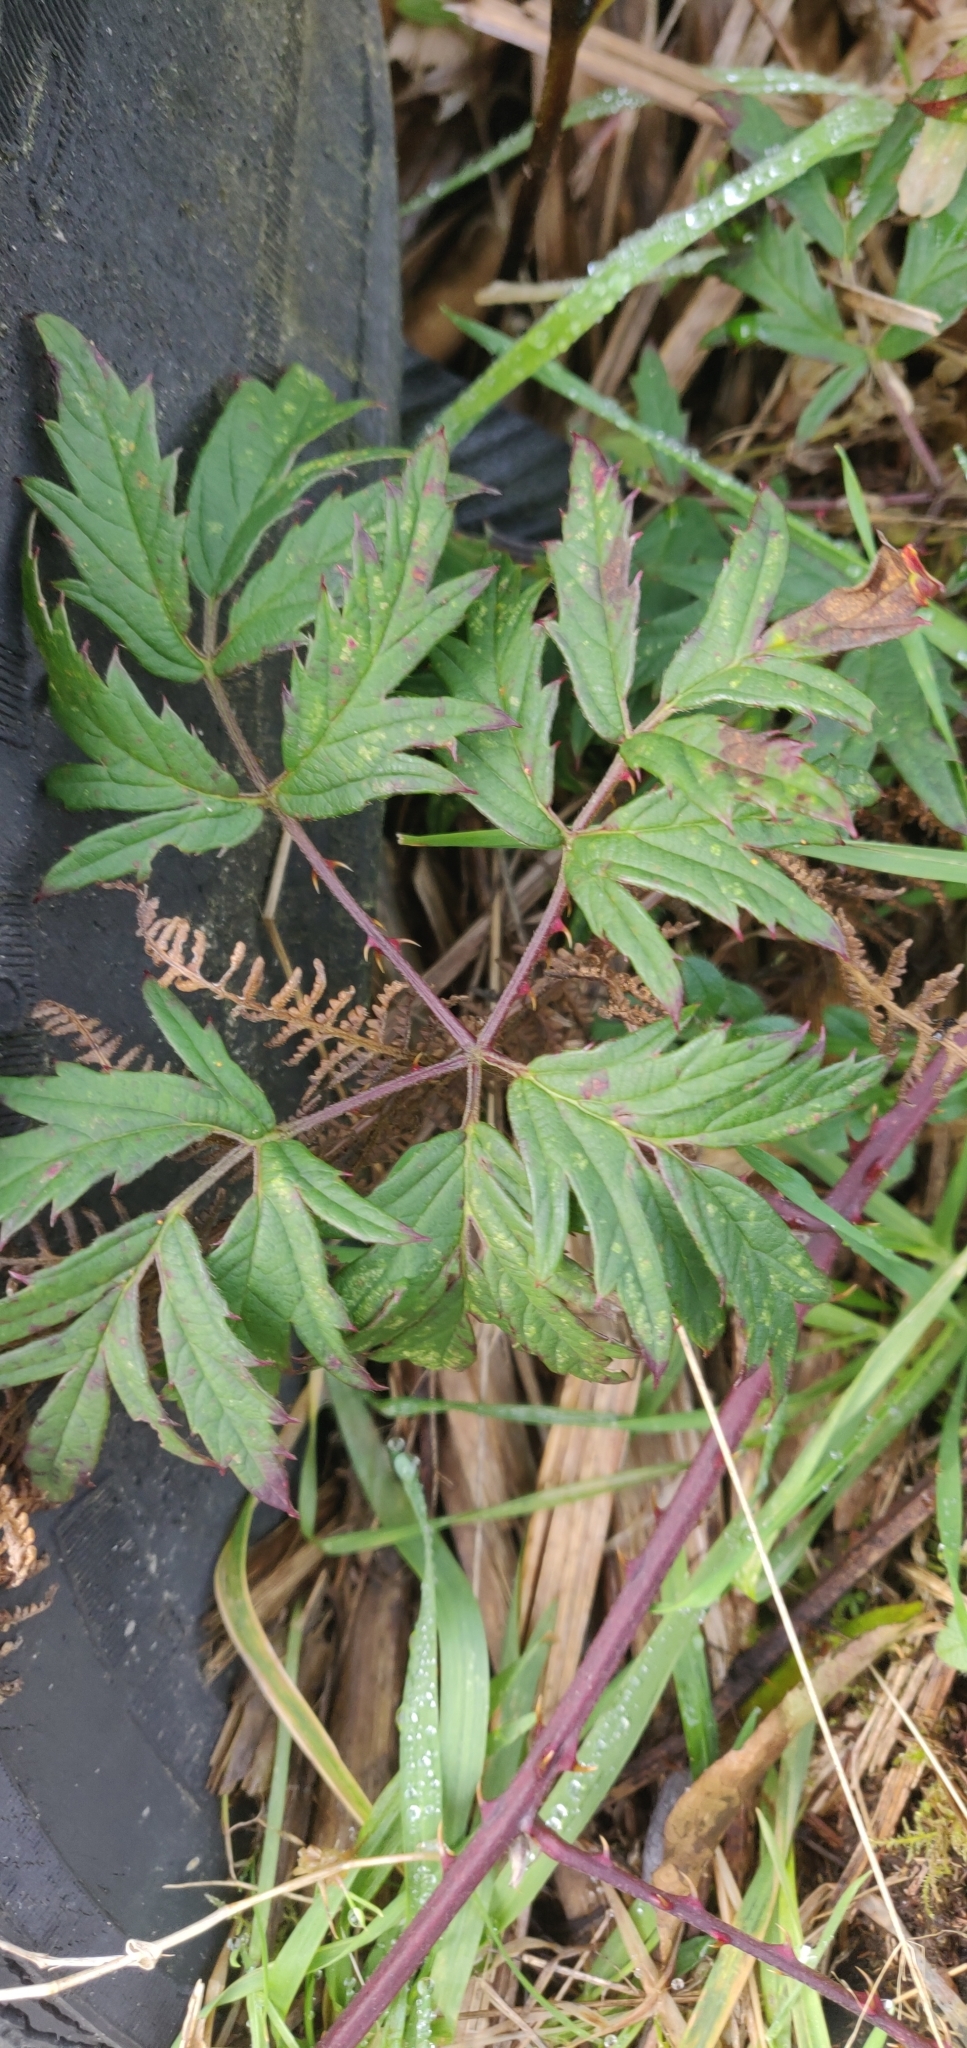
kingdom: Plantae
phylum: Tracheophyta
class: Magnoliopsida
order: Rosales
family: Rosaceae
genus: Rubus
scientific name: Rubus laciniatus
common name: Evergreen blackberry
